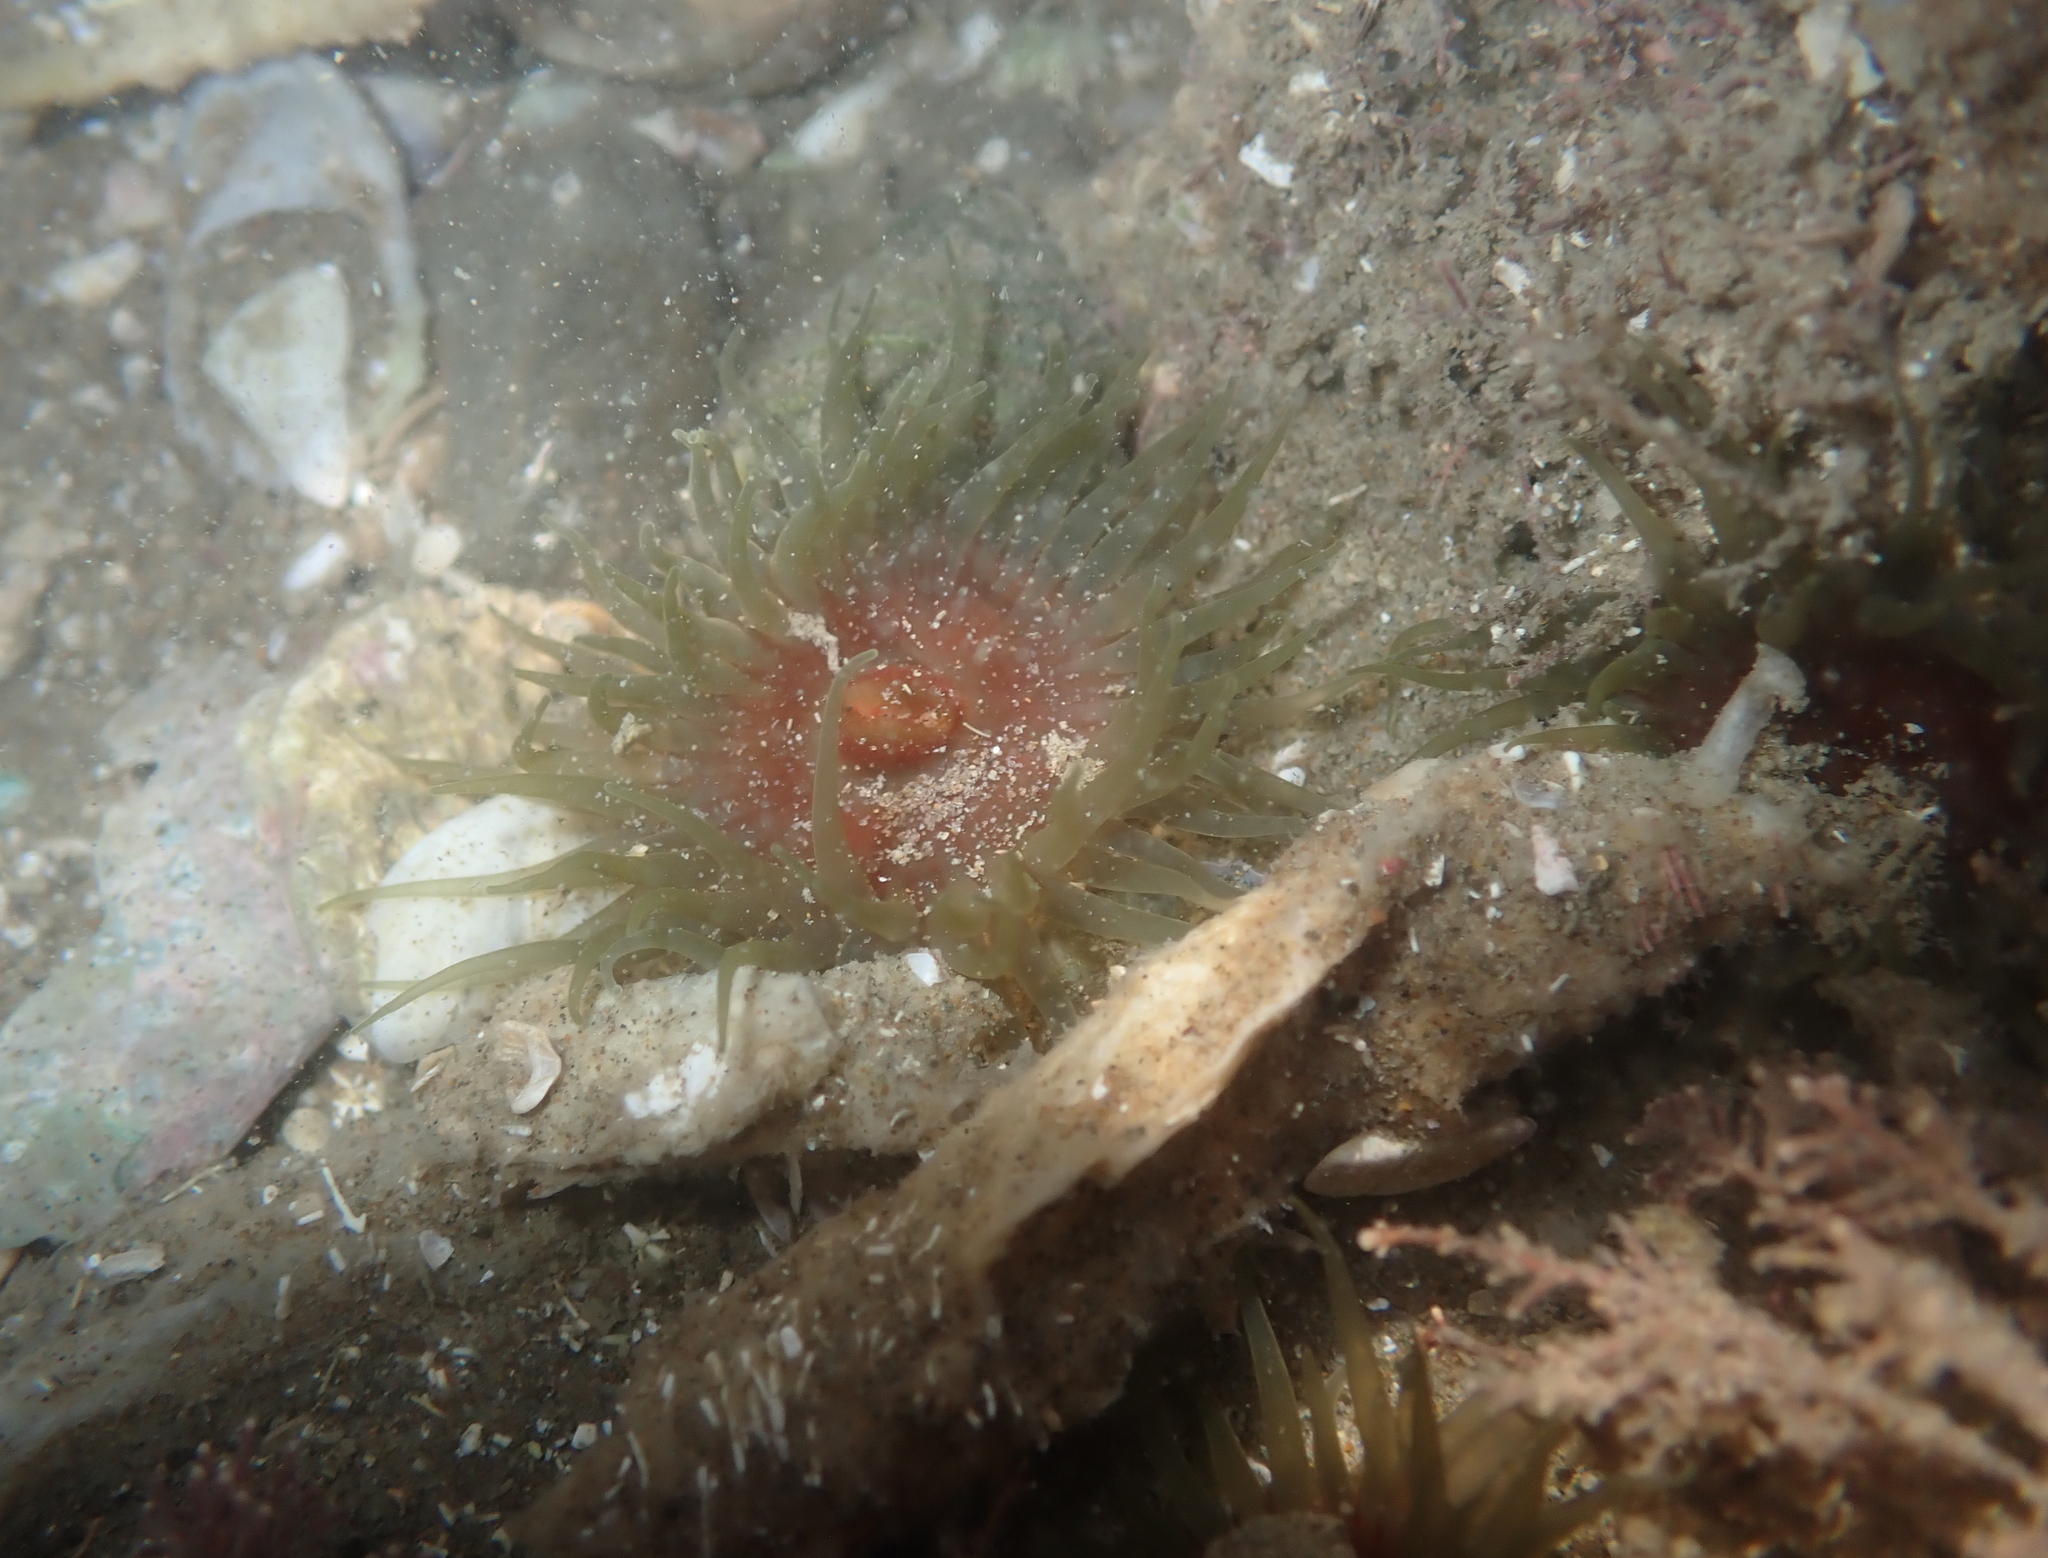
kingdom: Animalia
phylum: Cnidaria
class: Anthozoa
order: Actiniaria
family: Actiniidae
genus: Aulactinia
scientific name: Aulactinia veratra
